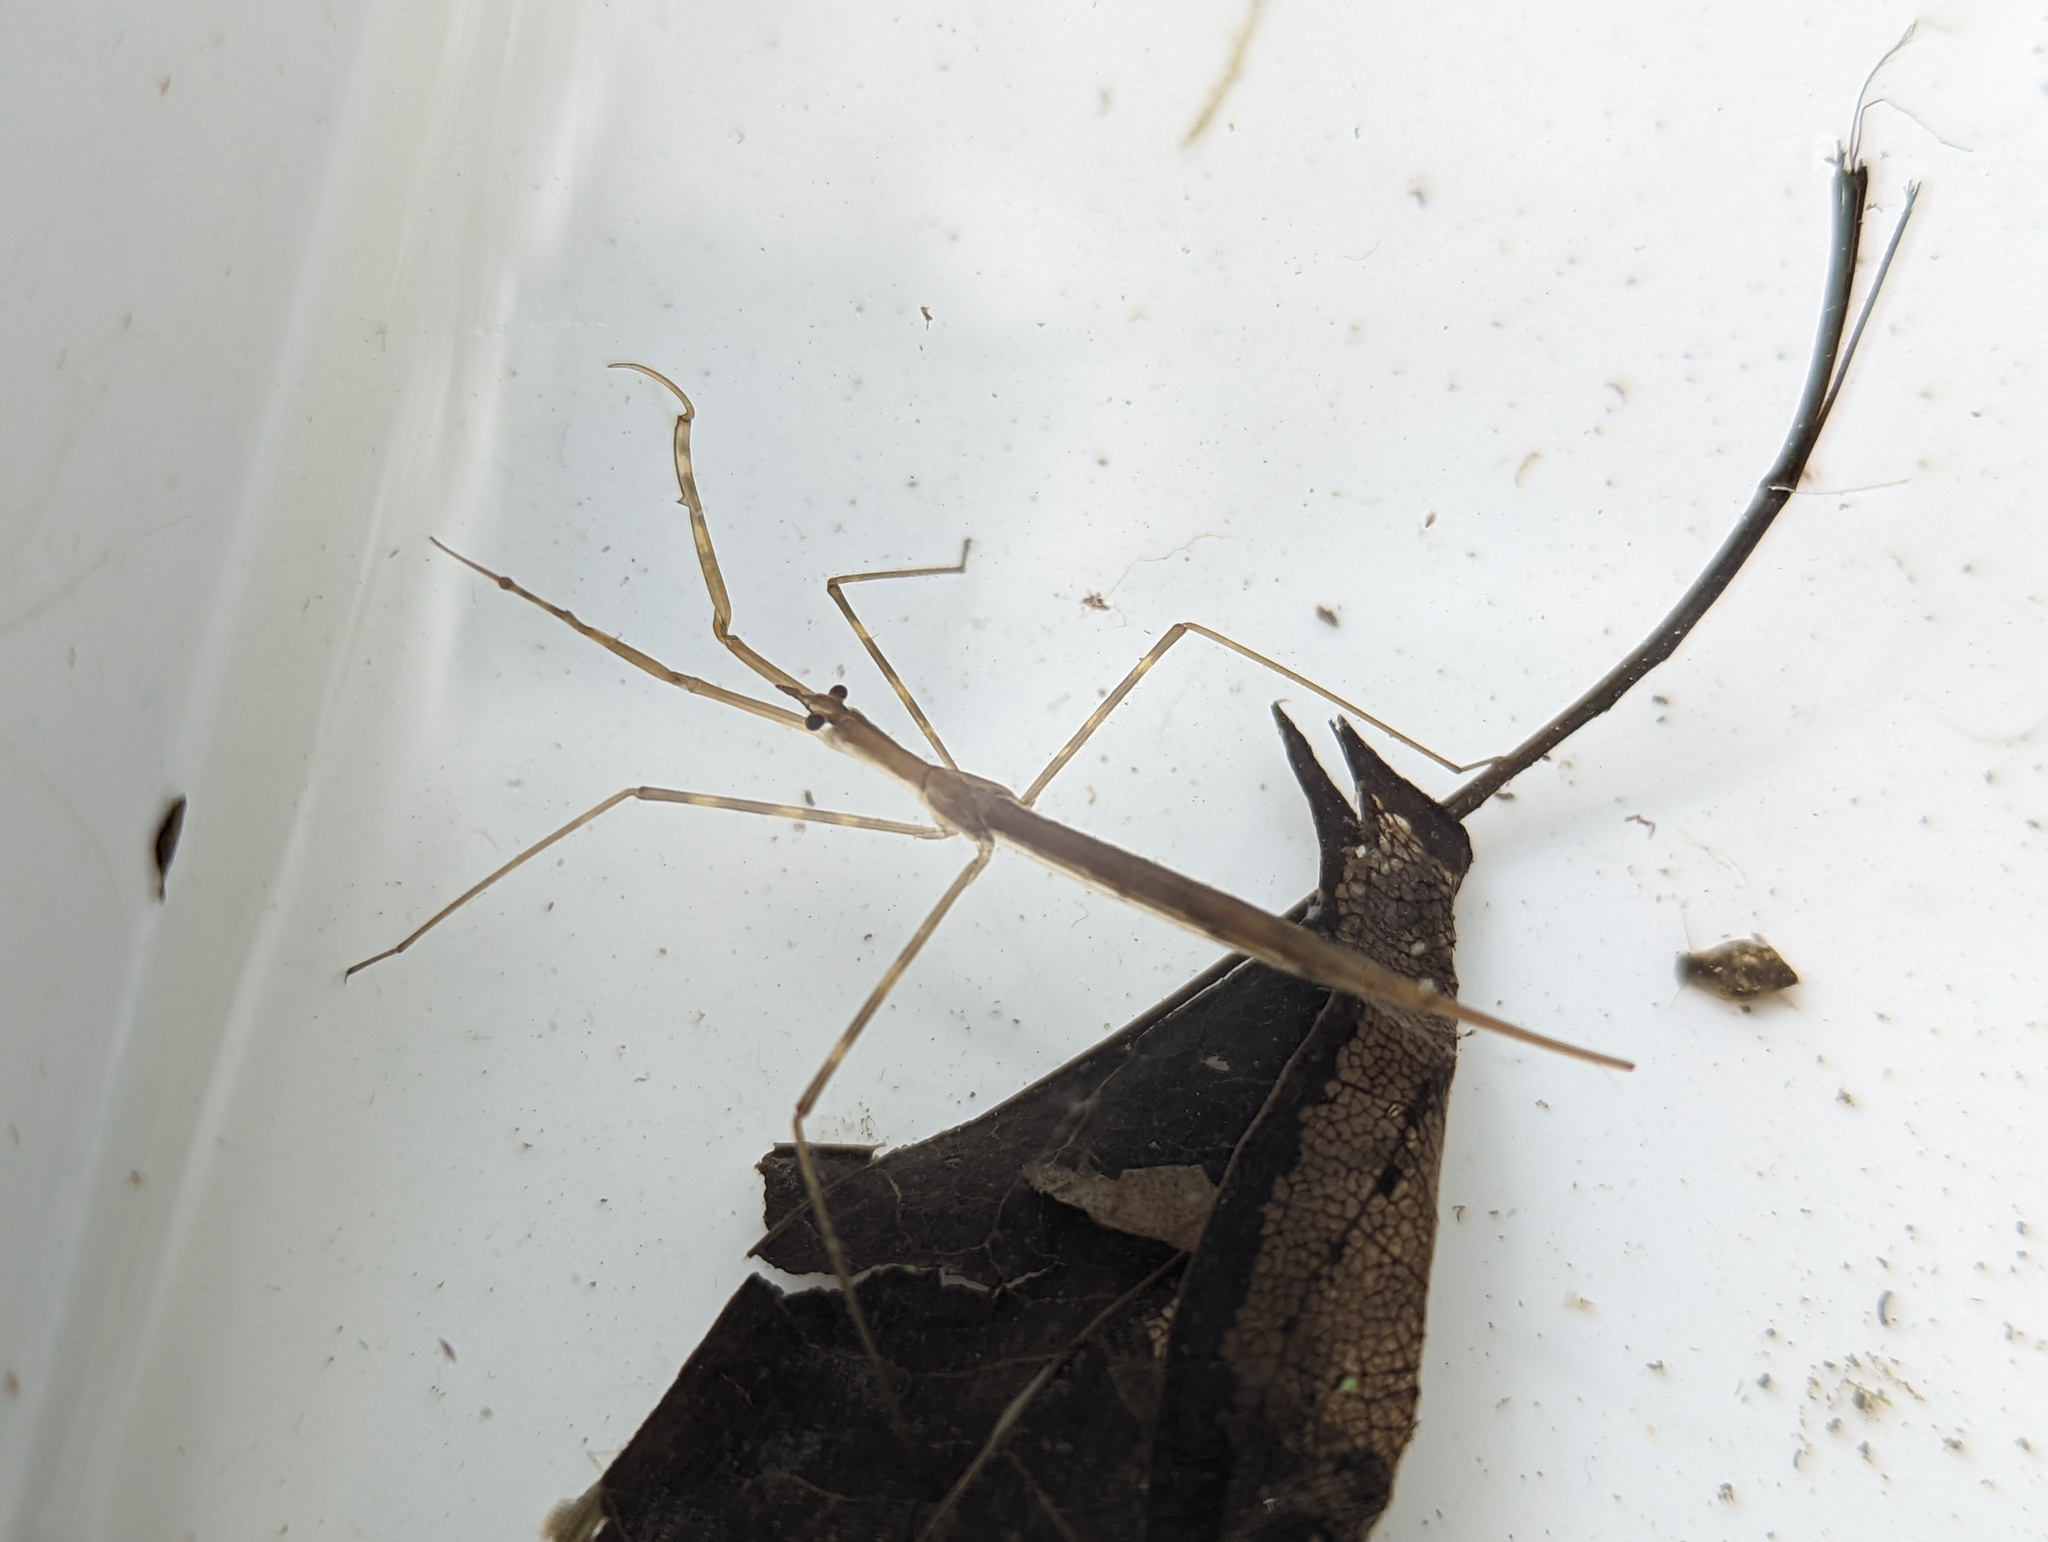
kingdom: Animalia
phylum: Arthropoda
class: Insecta
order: Hemiptera
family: Nepidae
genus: Ranatra
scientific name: Ranatra linearis
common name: Water stick insect
